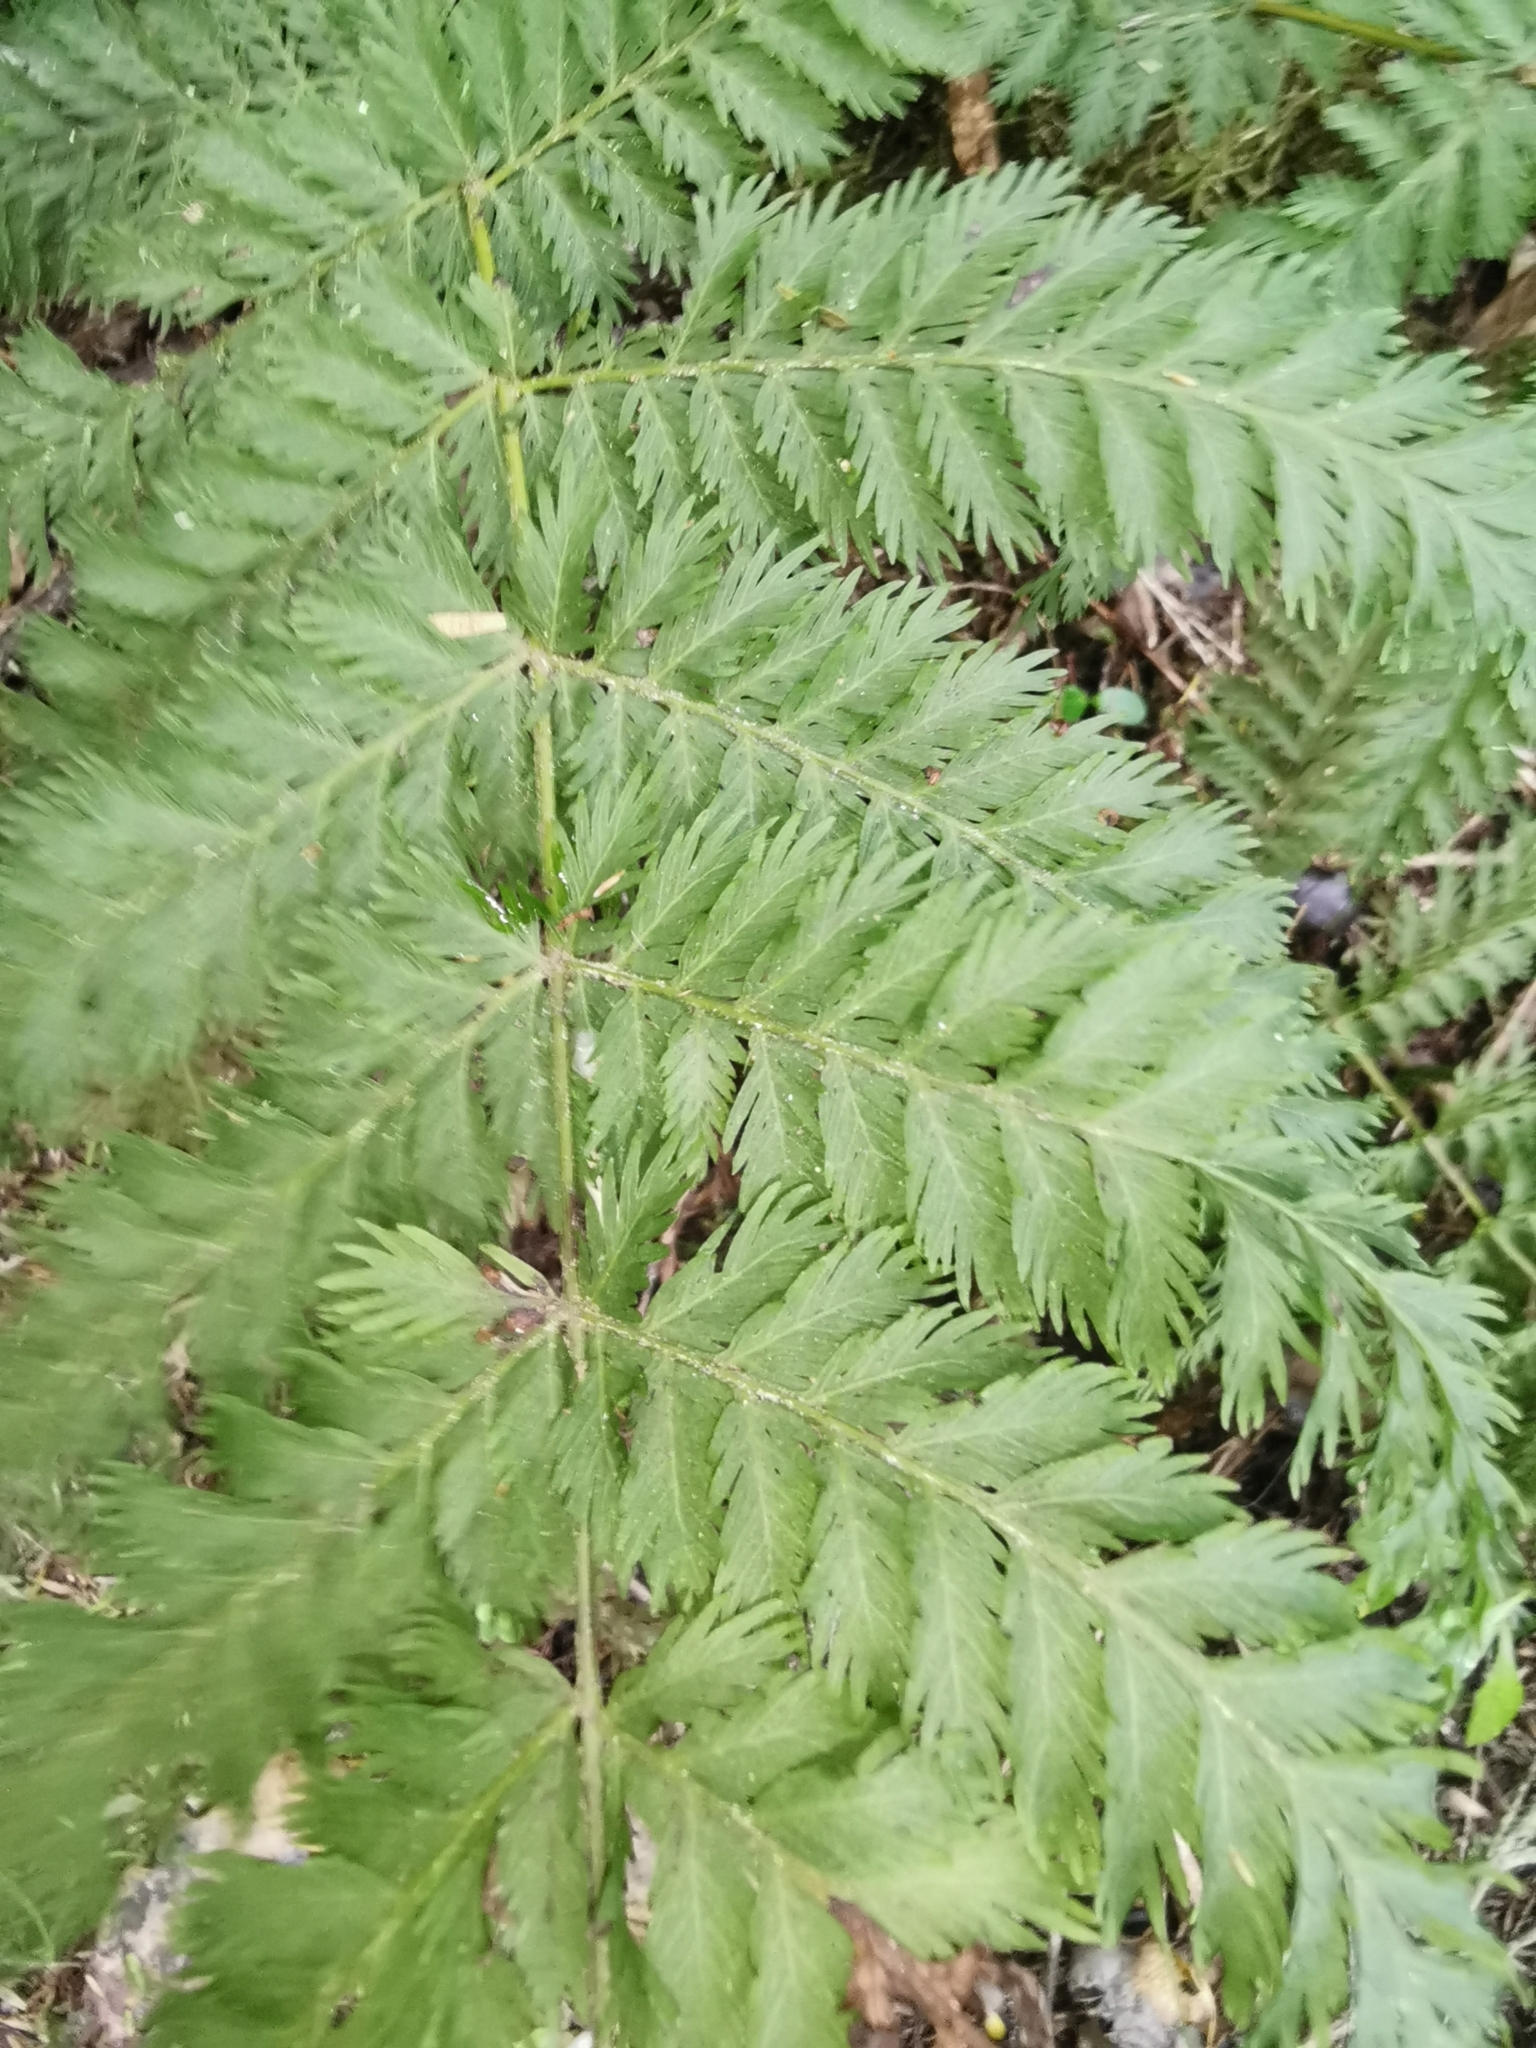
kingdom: Plantae
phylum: Tracheophyta
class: Polypodiopsida
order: Osmundales
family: Osmundaceae
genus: Leptopteris
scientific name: Leptopteris hymenophylloides
